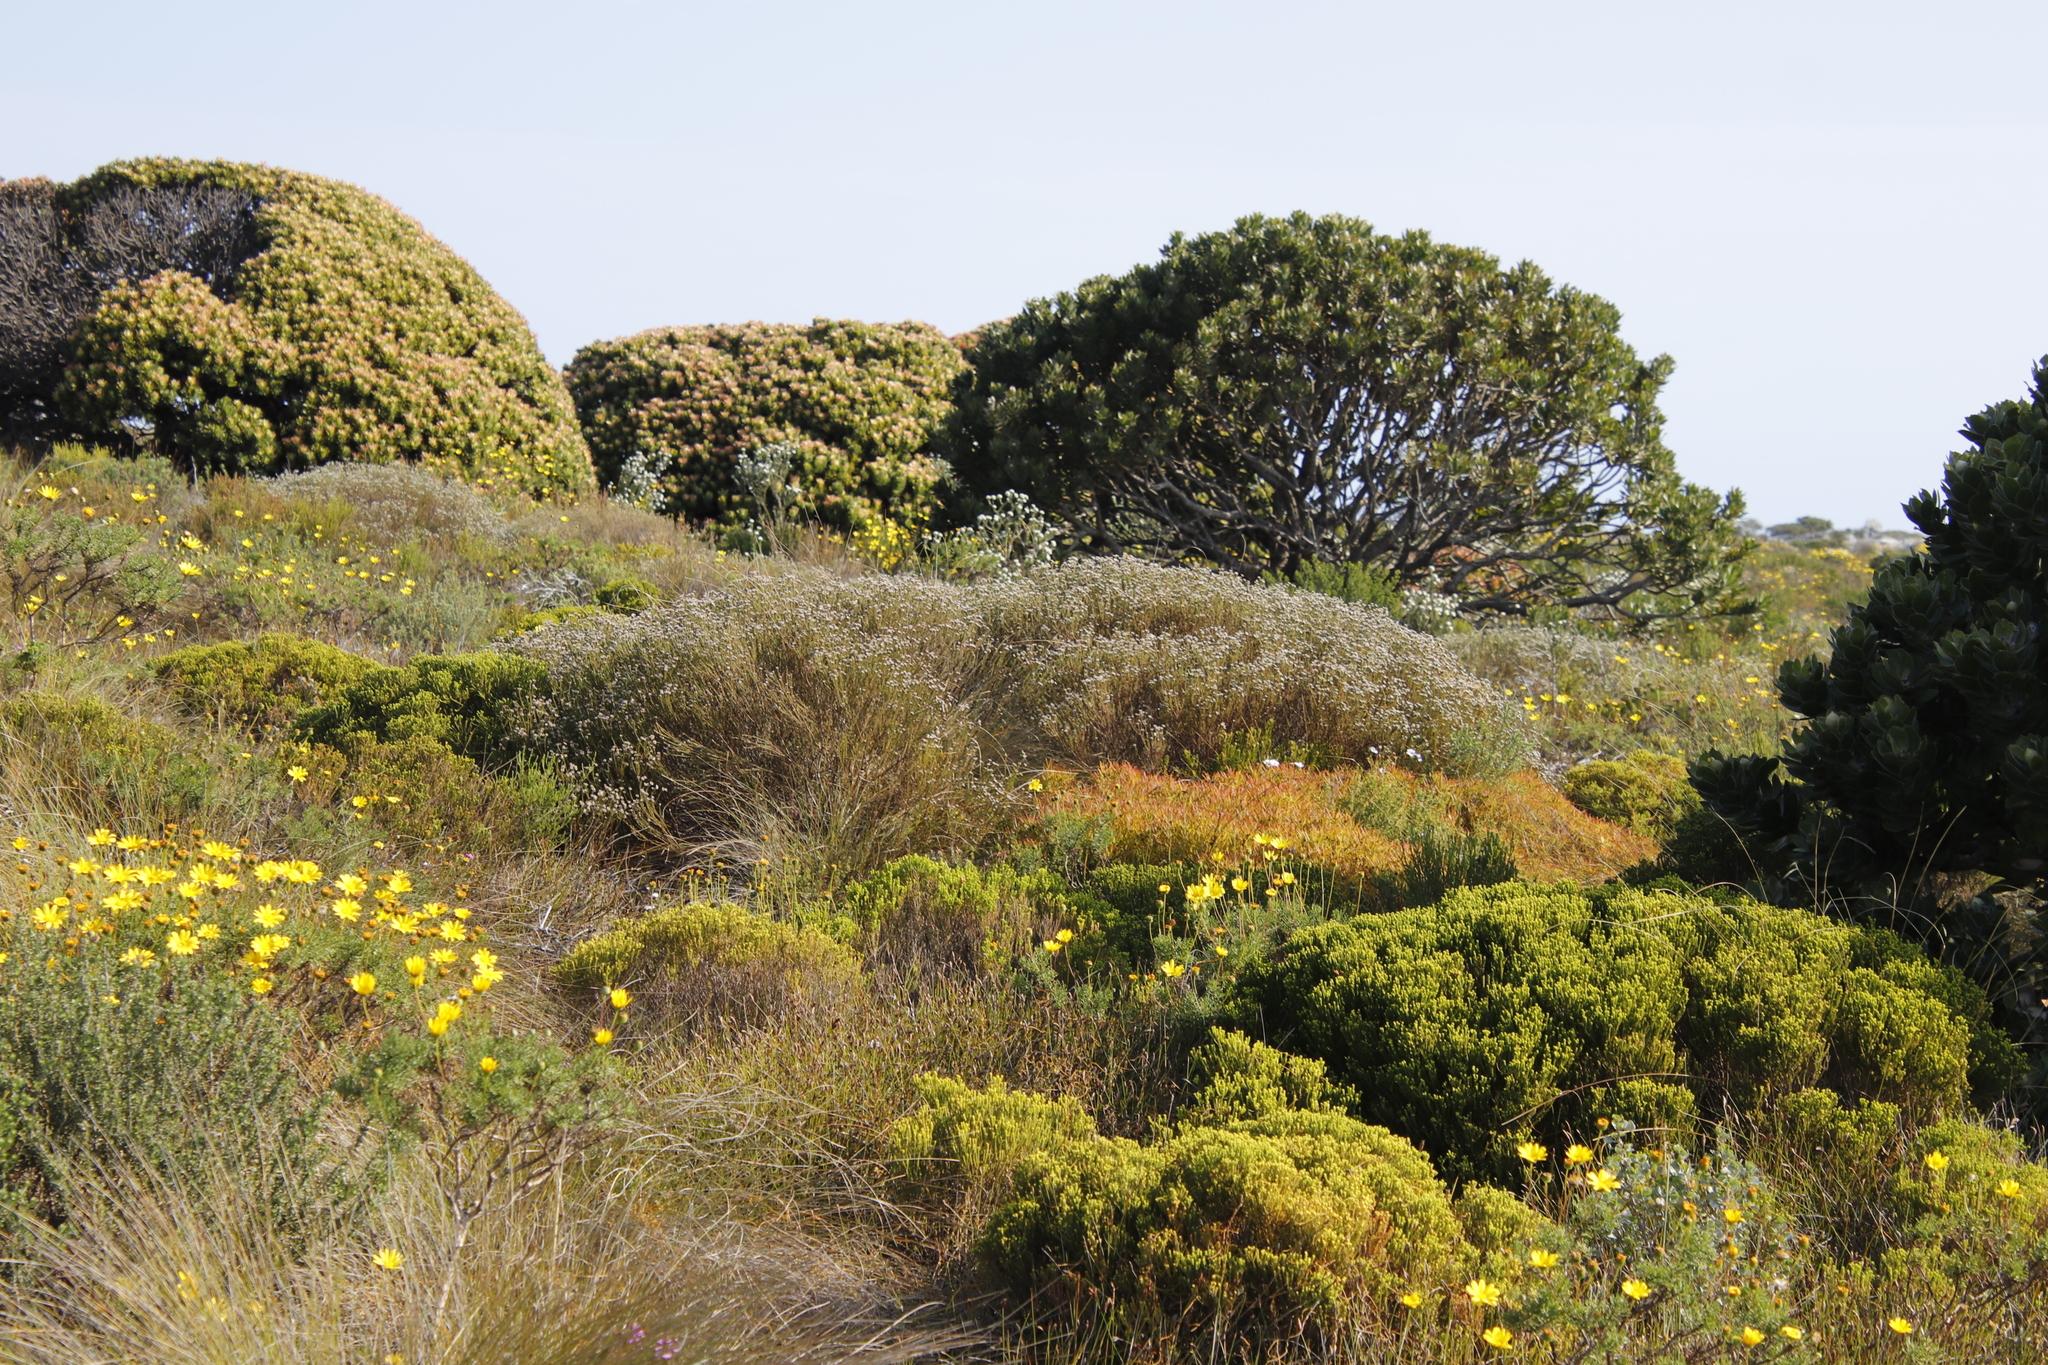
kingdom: Plantae
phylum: Tracheophyta
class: Magnoliopsida
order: Bruniales
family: Bruniaceae
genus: Staavia
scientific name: Staavia radiata
